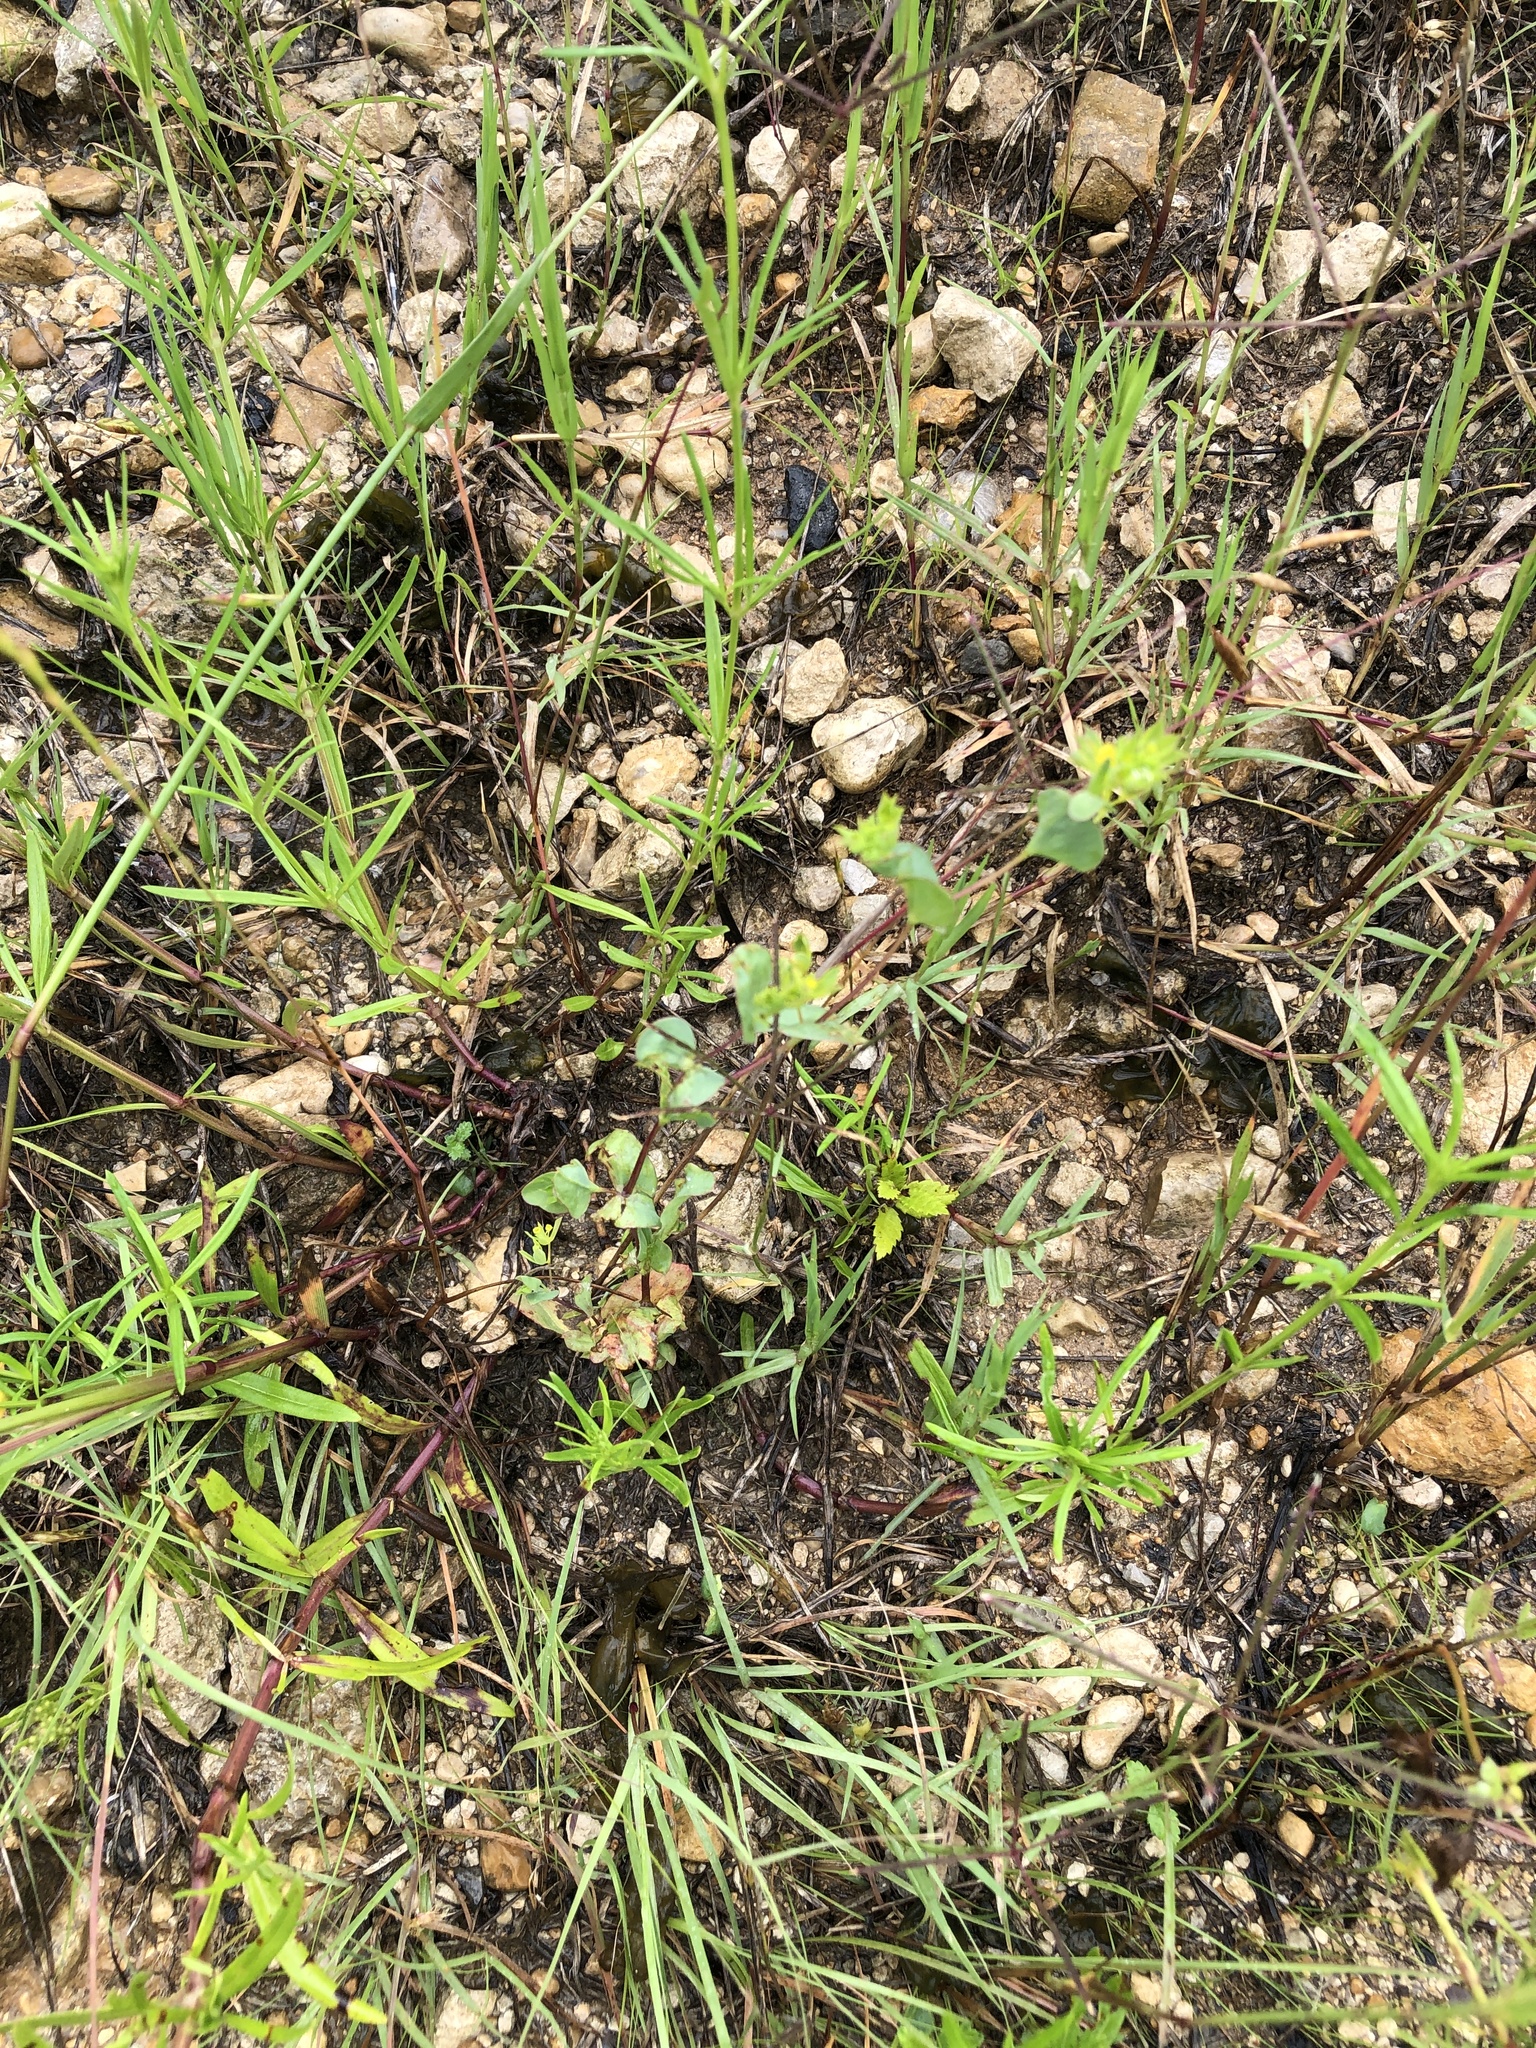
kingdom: Plantae
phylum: Tracheophyta
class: Magnoliopsida
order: Apiales
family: Apiaceae
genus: Bupleurum
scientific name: Bupleurum rotundifolium
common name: Thorow-wax
